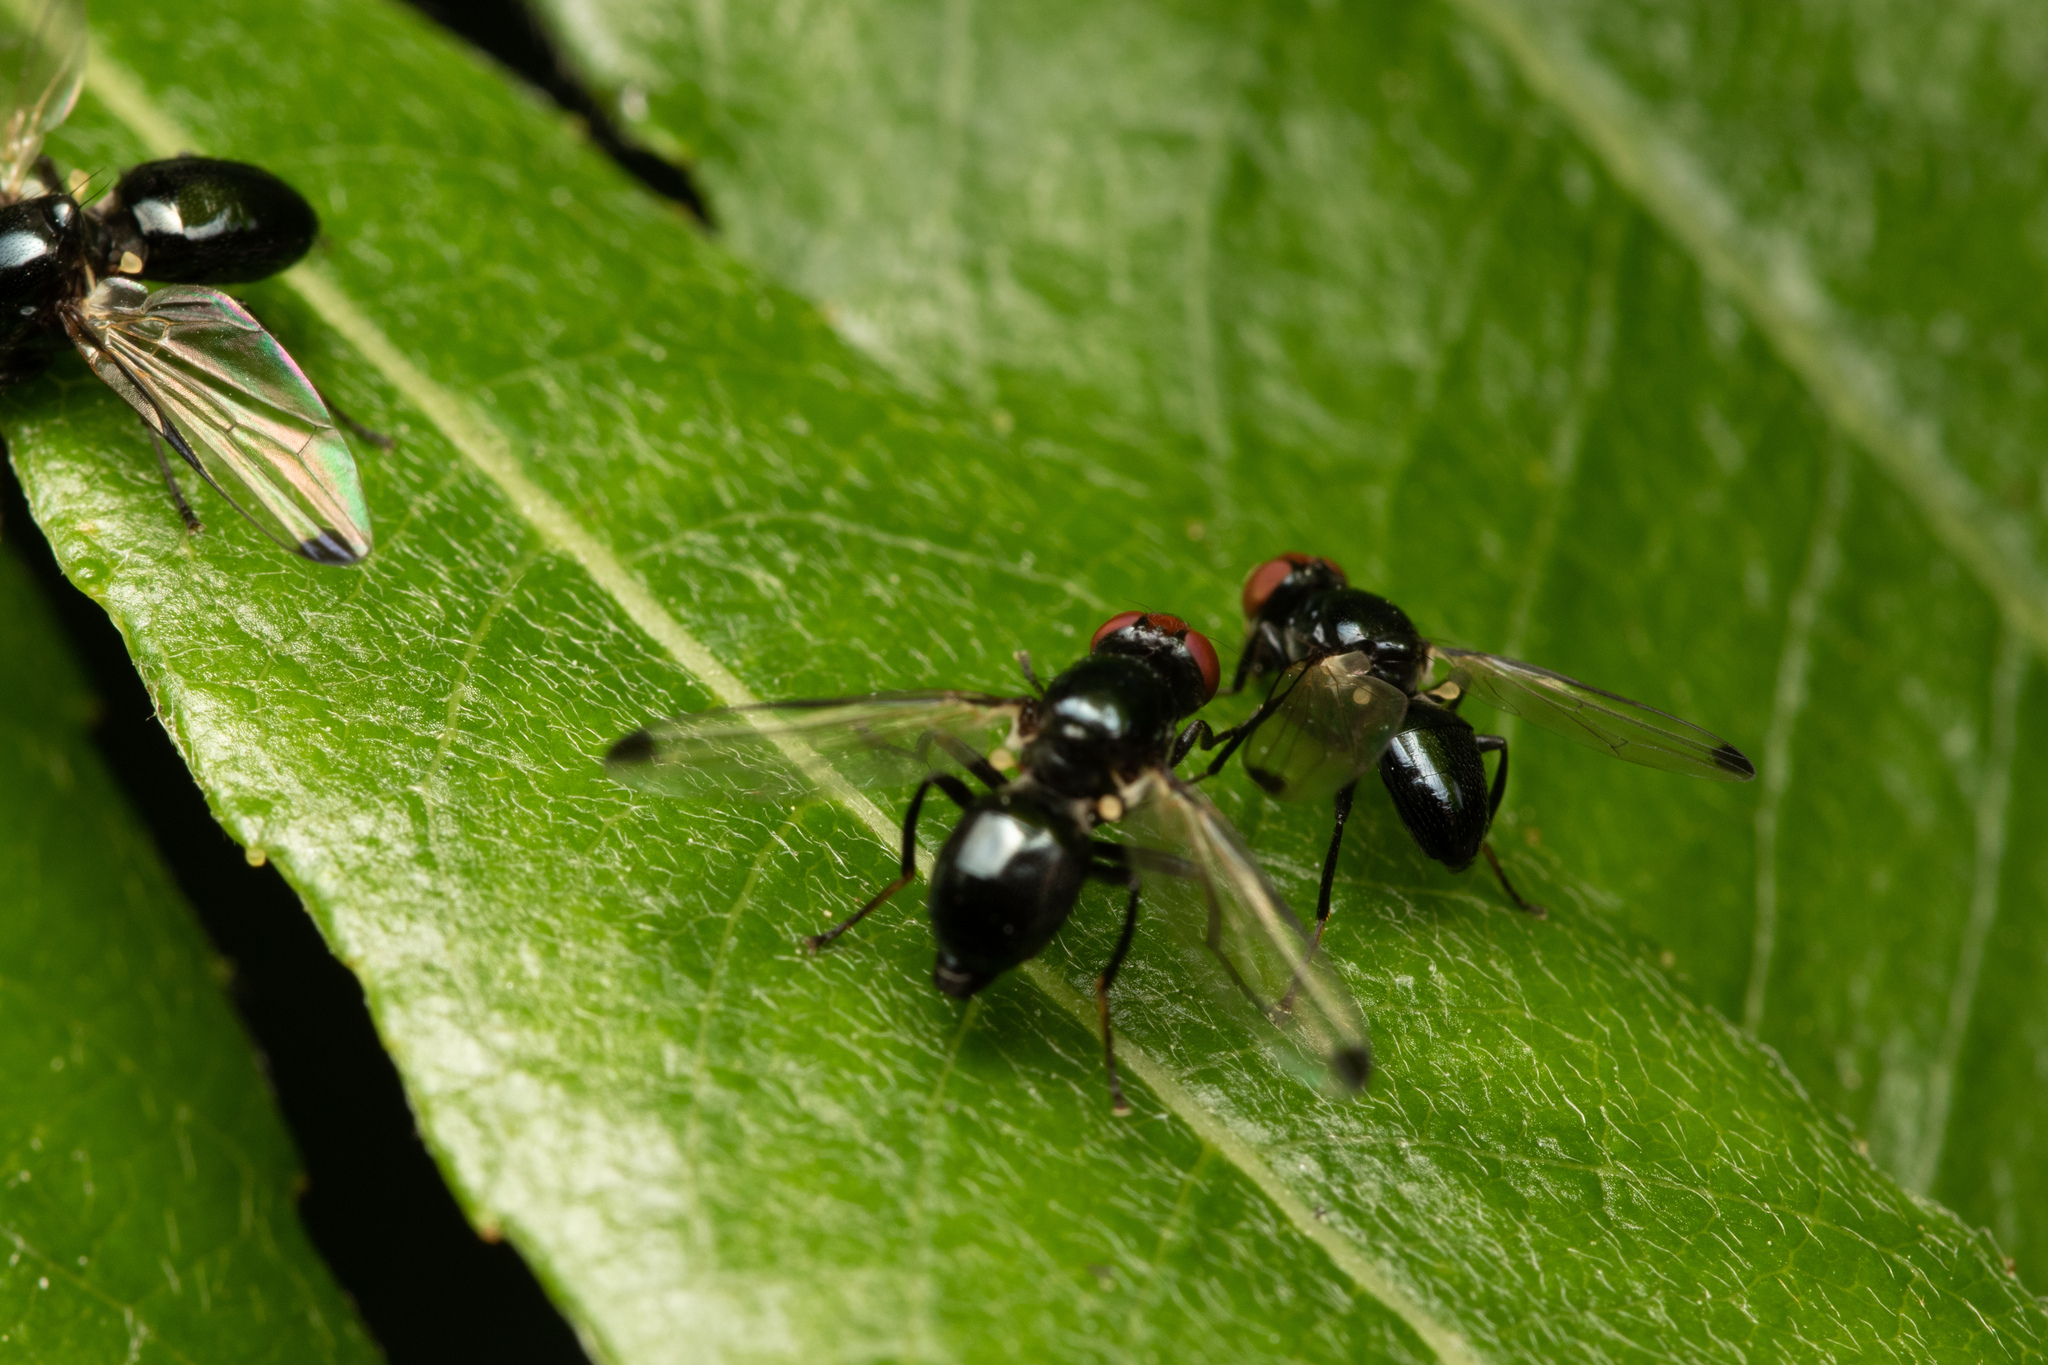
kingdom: Animalia
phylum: Arthropoda
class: Insecta
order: Diptera
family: Ulidiidae
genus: Seioptera
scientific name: Seioptera vibrans
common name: Dark-tipped wingwaver
